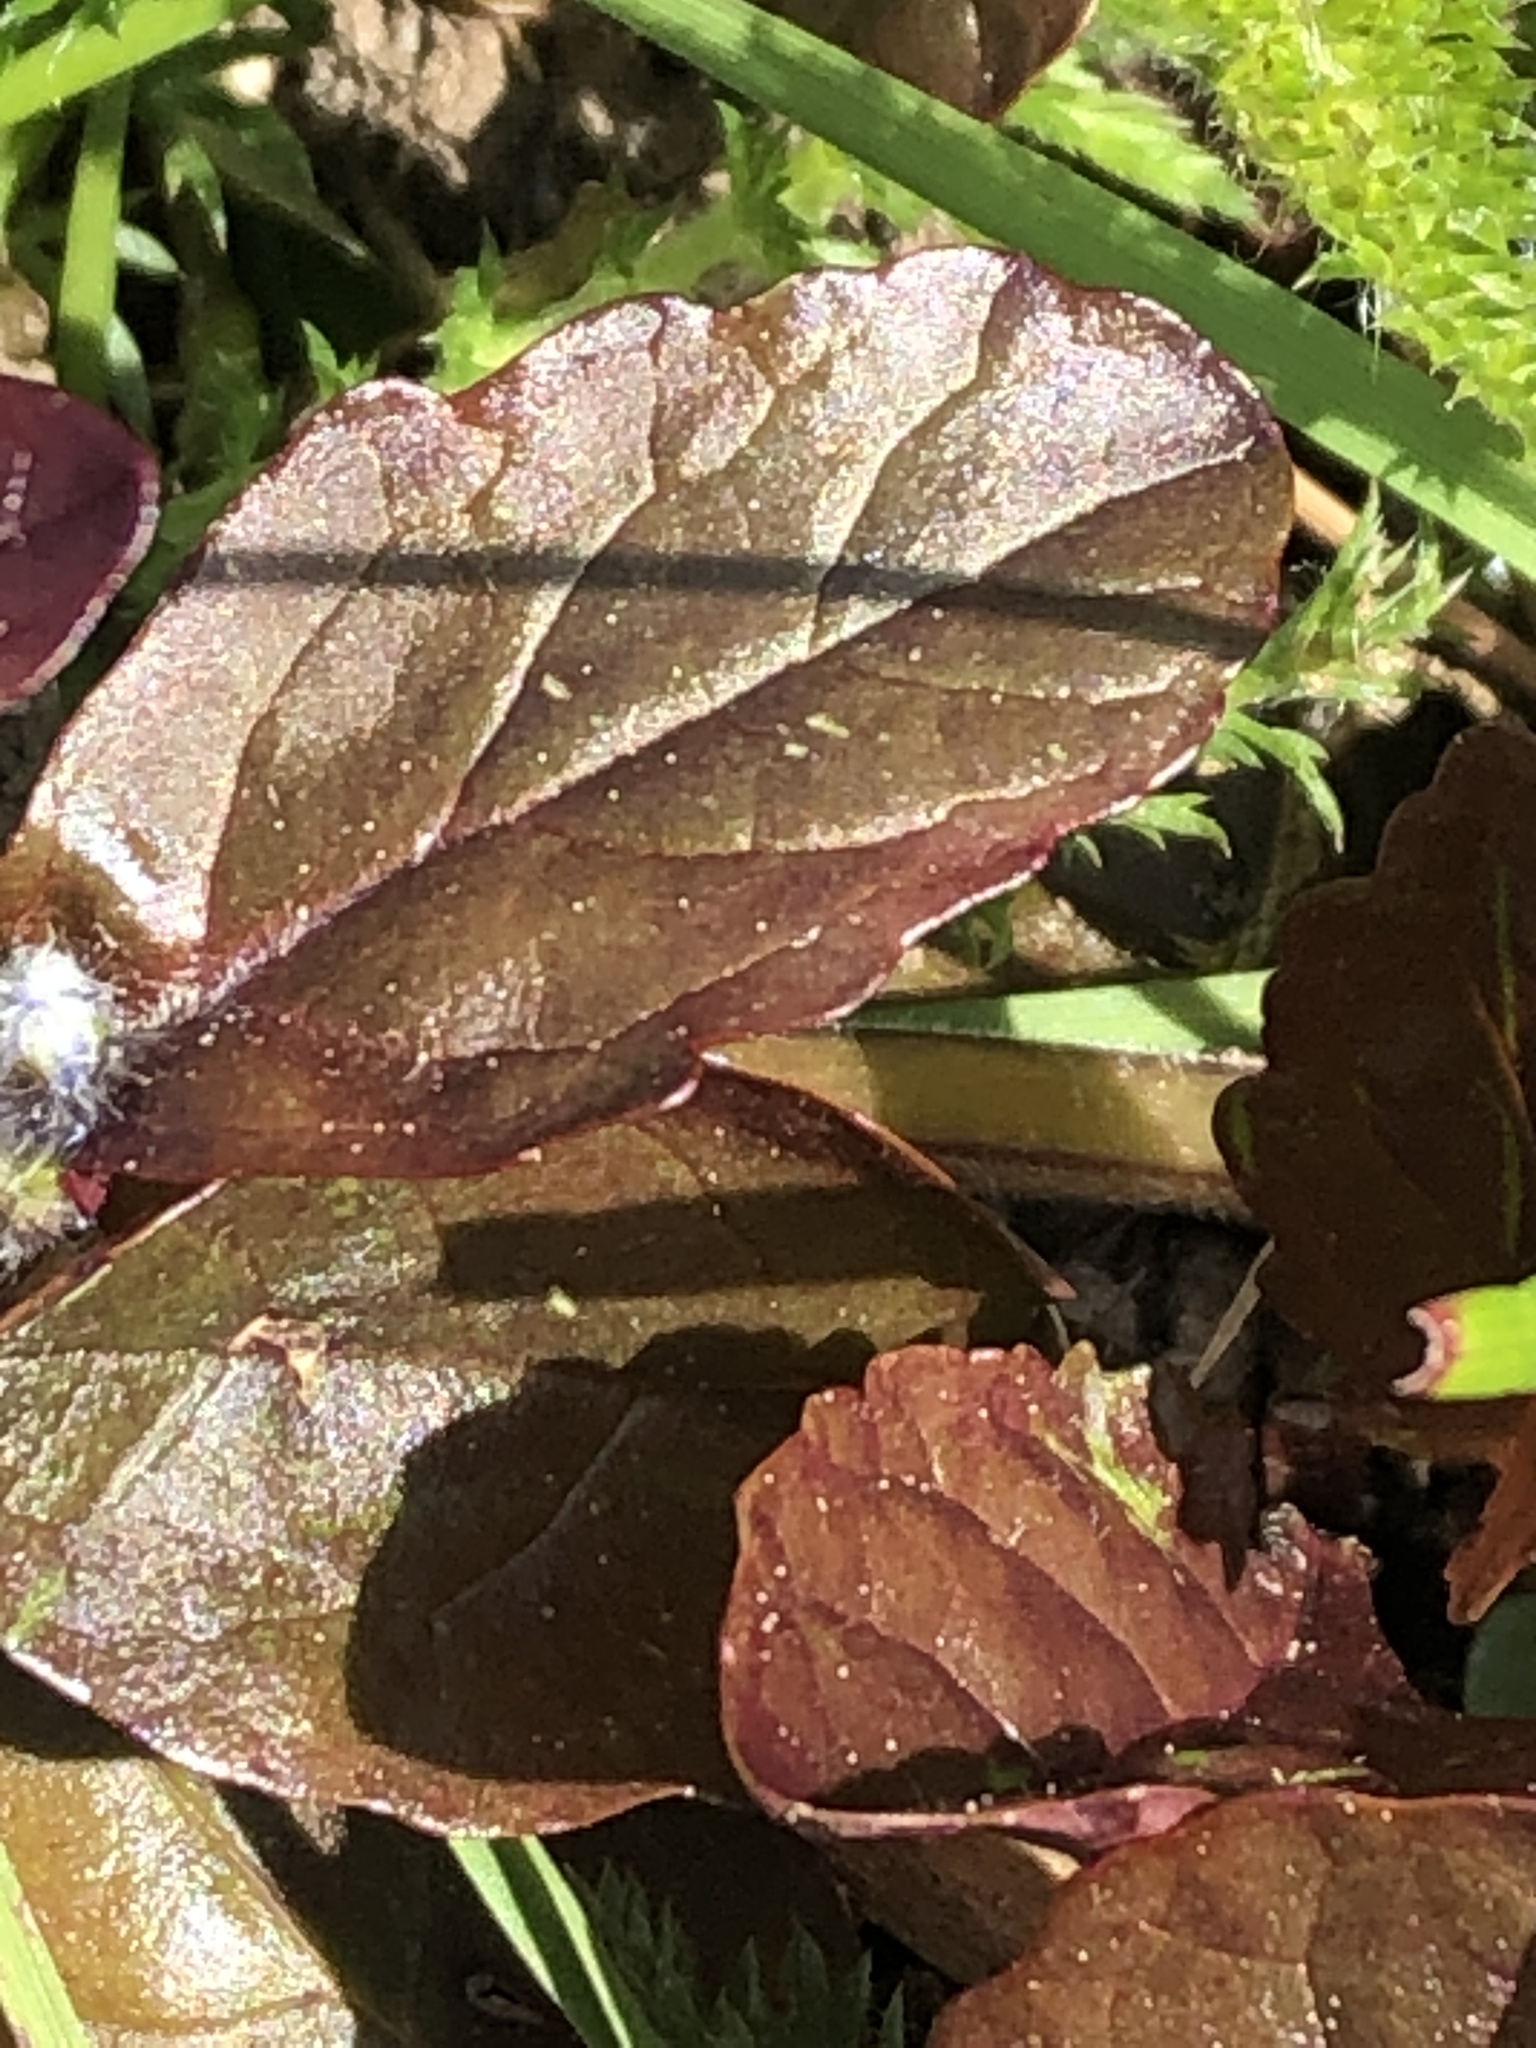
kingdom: Plantae
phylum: Tracheophyta
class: Magnoliopsida
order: Lamiales
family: Lamiaceae
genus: Ajuga
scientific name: Ajuga reptans
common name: Bugle
